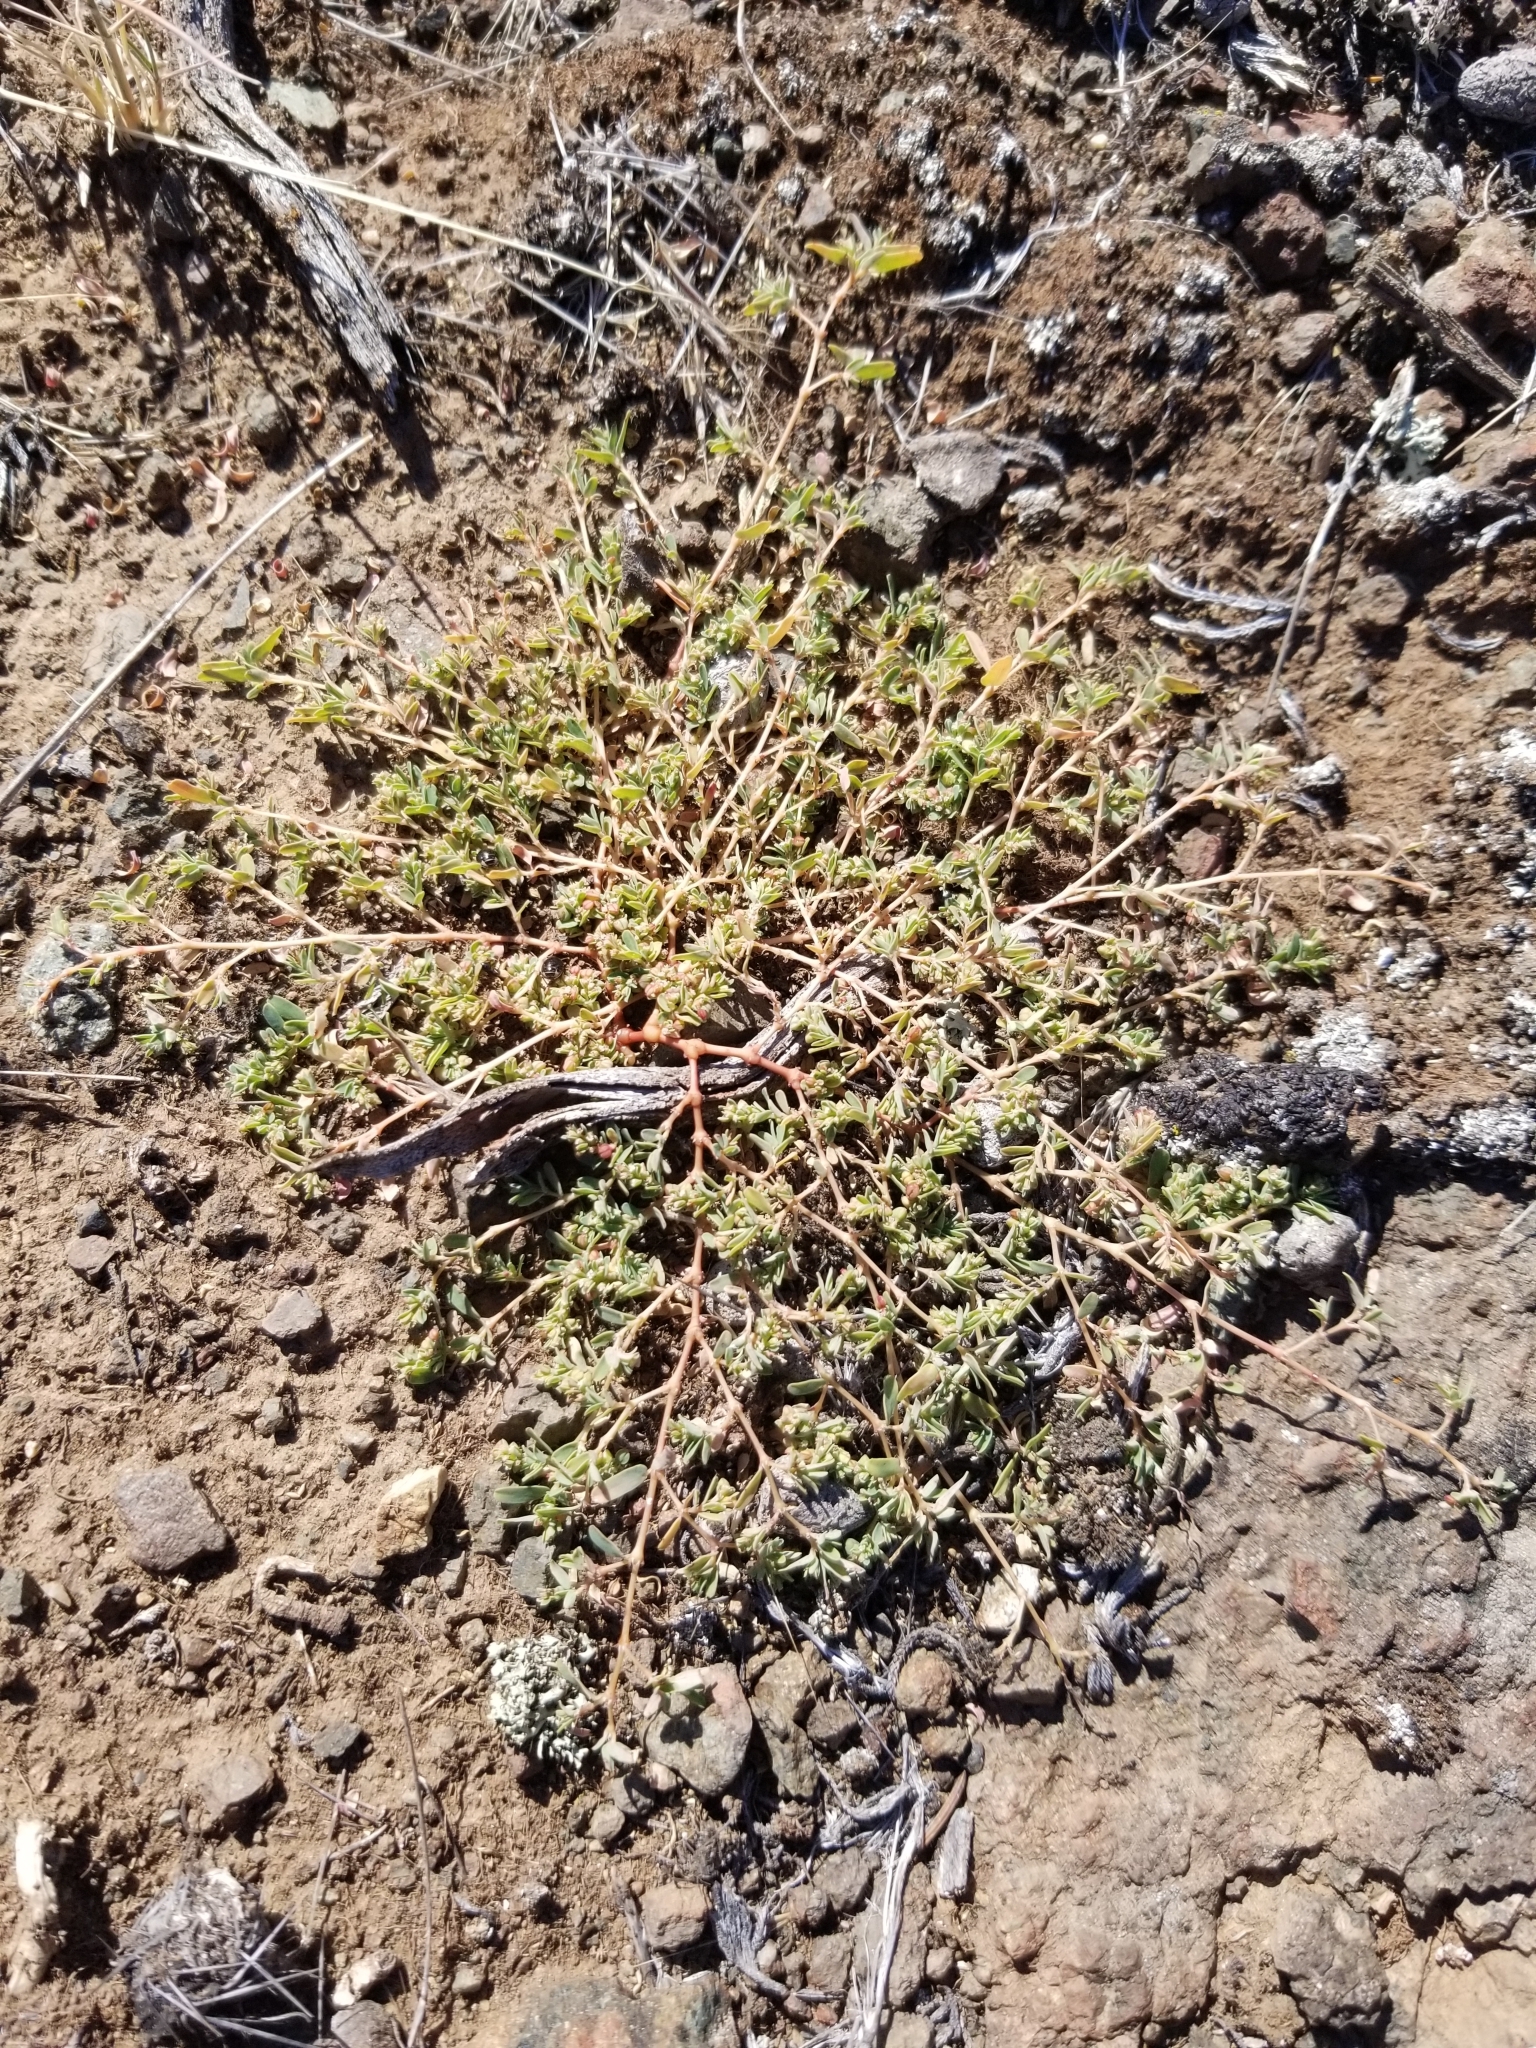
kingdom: Plantae
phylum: Tracheophyta
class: Magnoliopsida
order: Malpighiales
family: Euphorbiaceae
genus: Euphorbia
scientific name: Euphorbia glyptosperma
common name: Corrugate-seeded spurge
